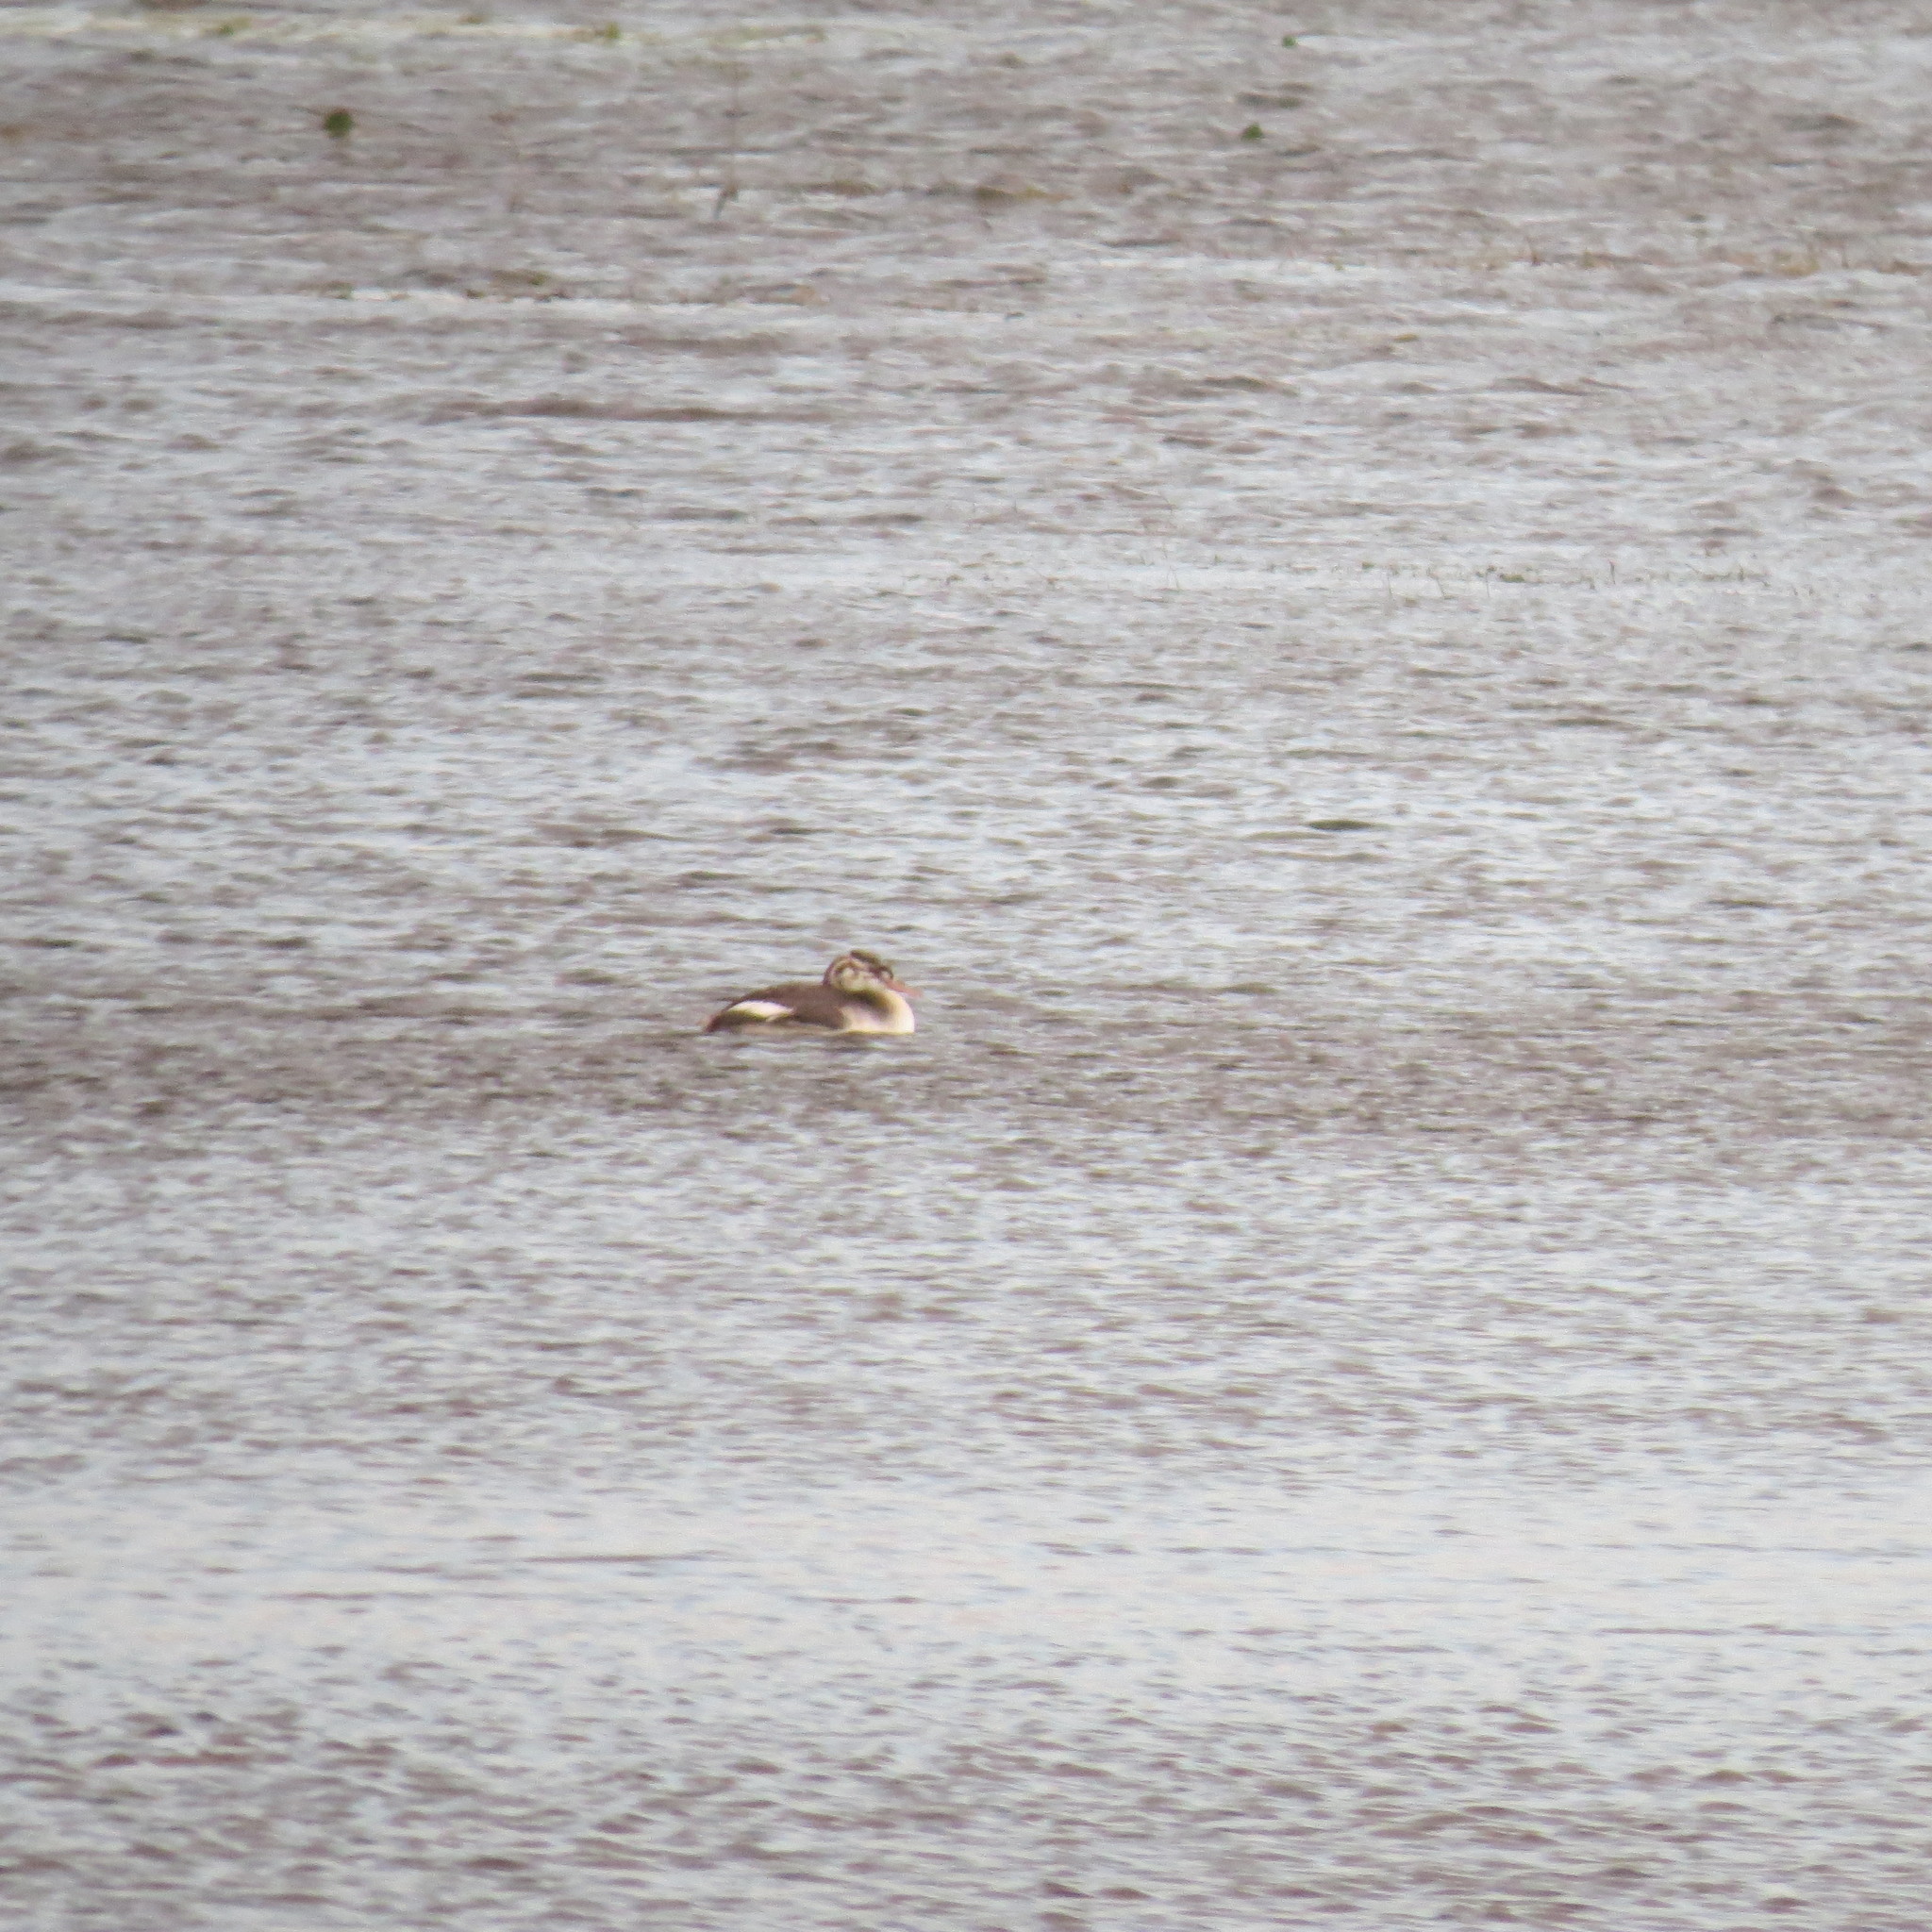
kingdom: Animalia
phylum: Chordata
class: Aves
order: Podicipediformes
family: Podicipedidae
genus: Podiceps
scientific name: Podiceps cristatus
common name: Great crested grebe
